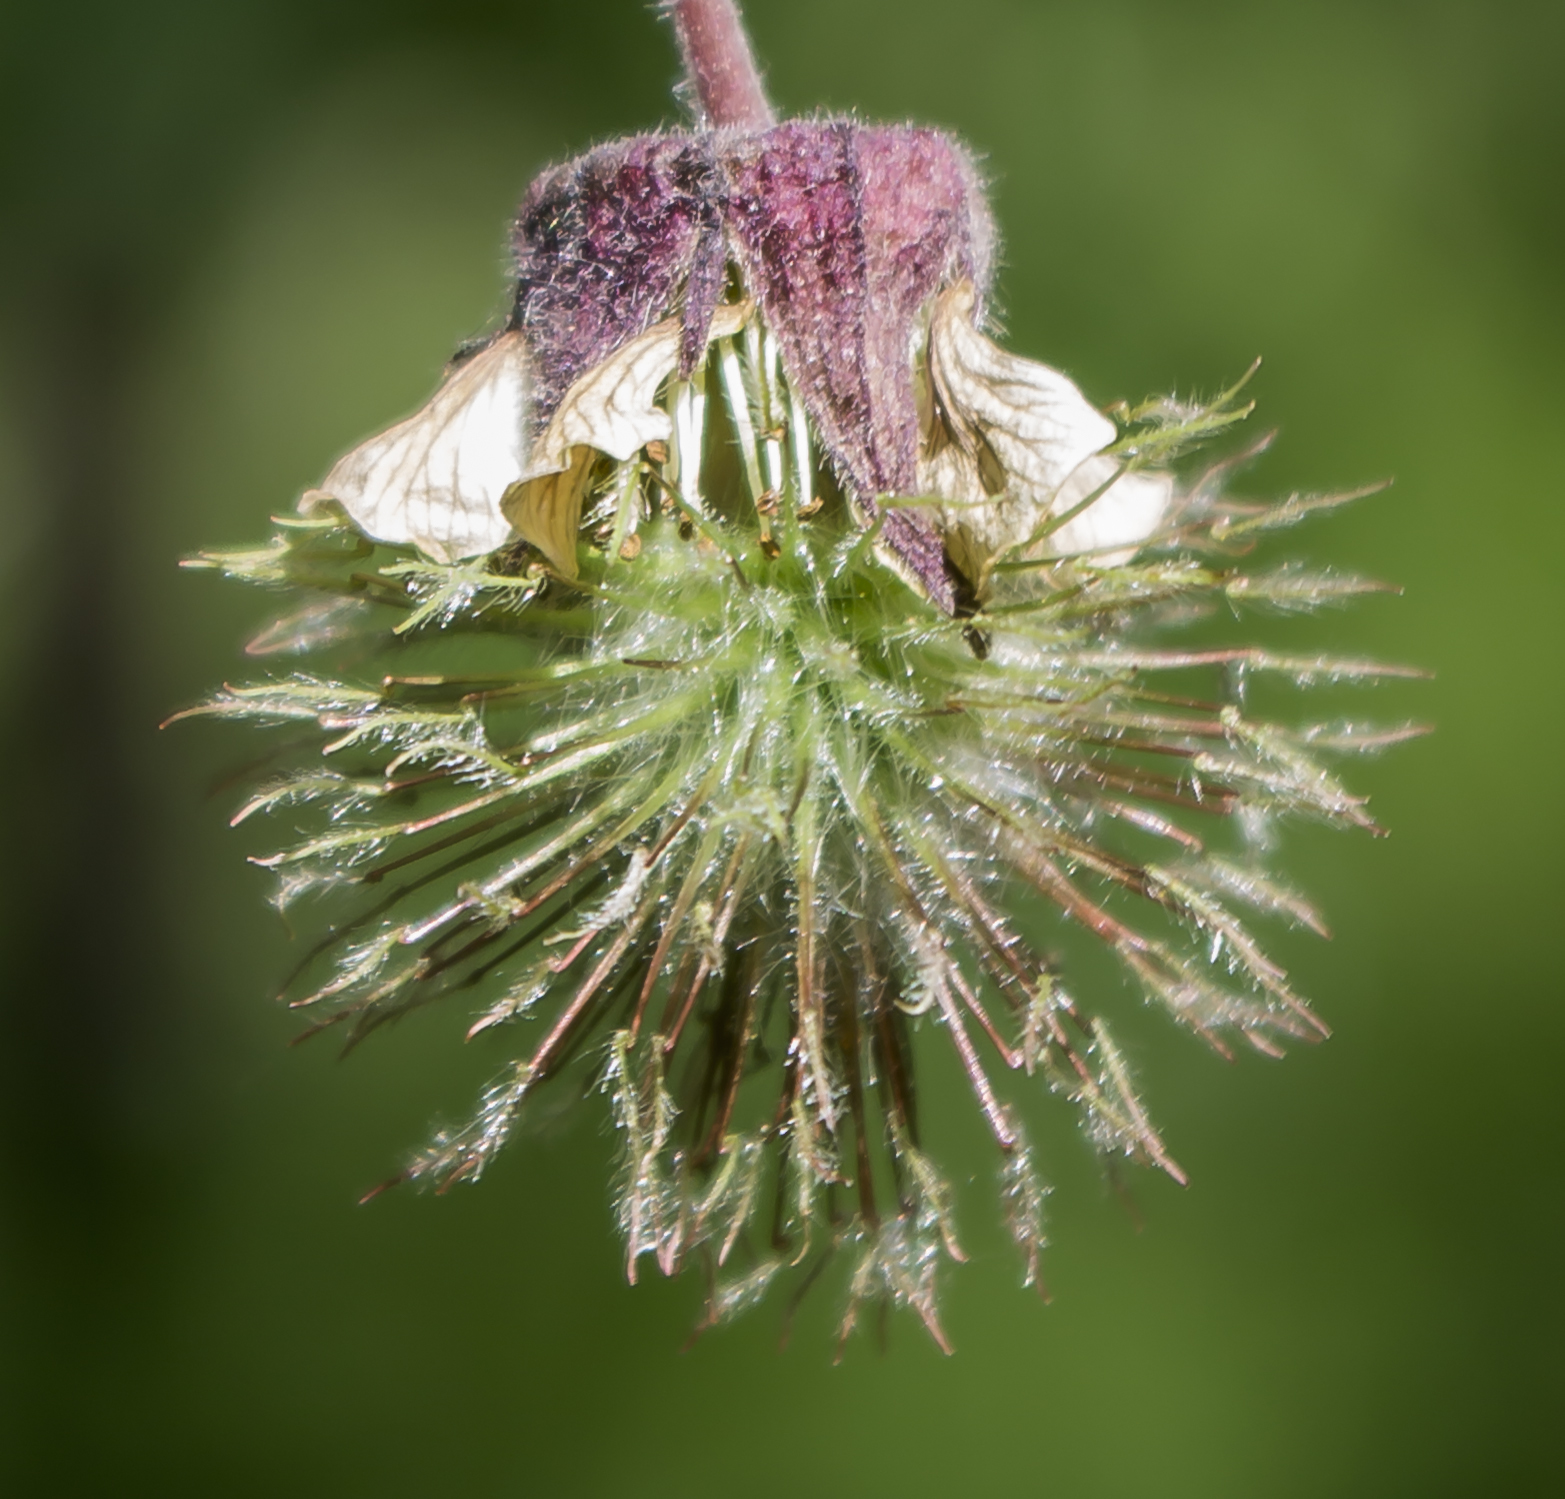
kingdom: Plantae
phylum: Tracheophyta
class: Magnoliopsida
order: Rosales
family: Rosaceae
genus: Geum
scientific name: Geum rivale
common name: Water avens
